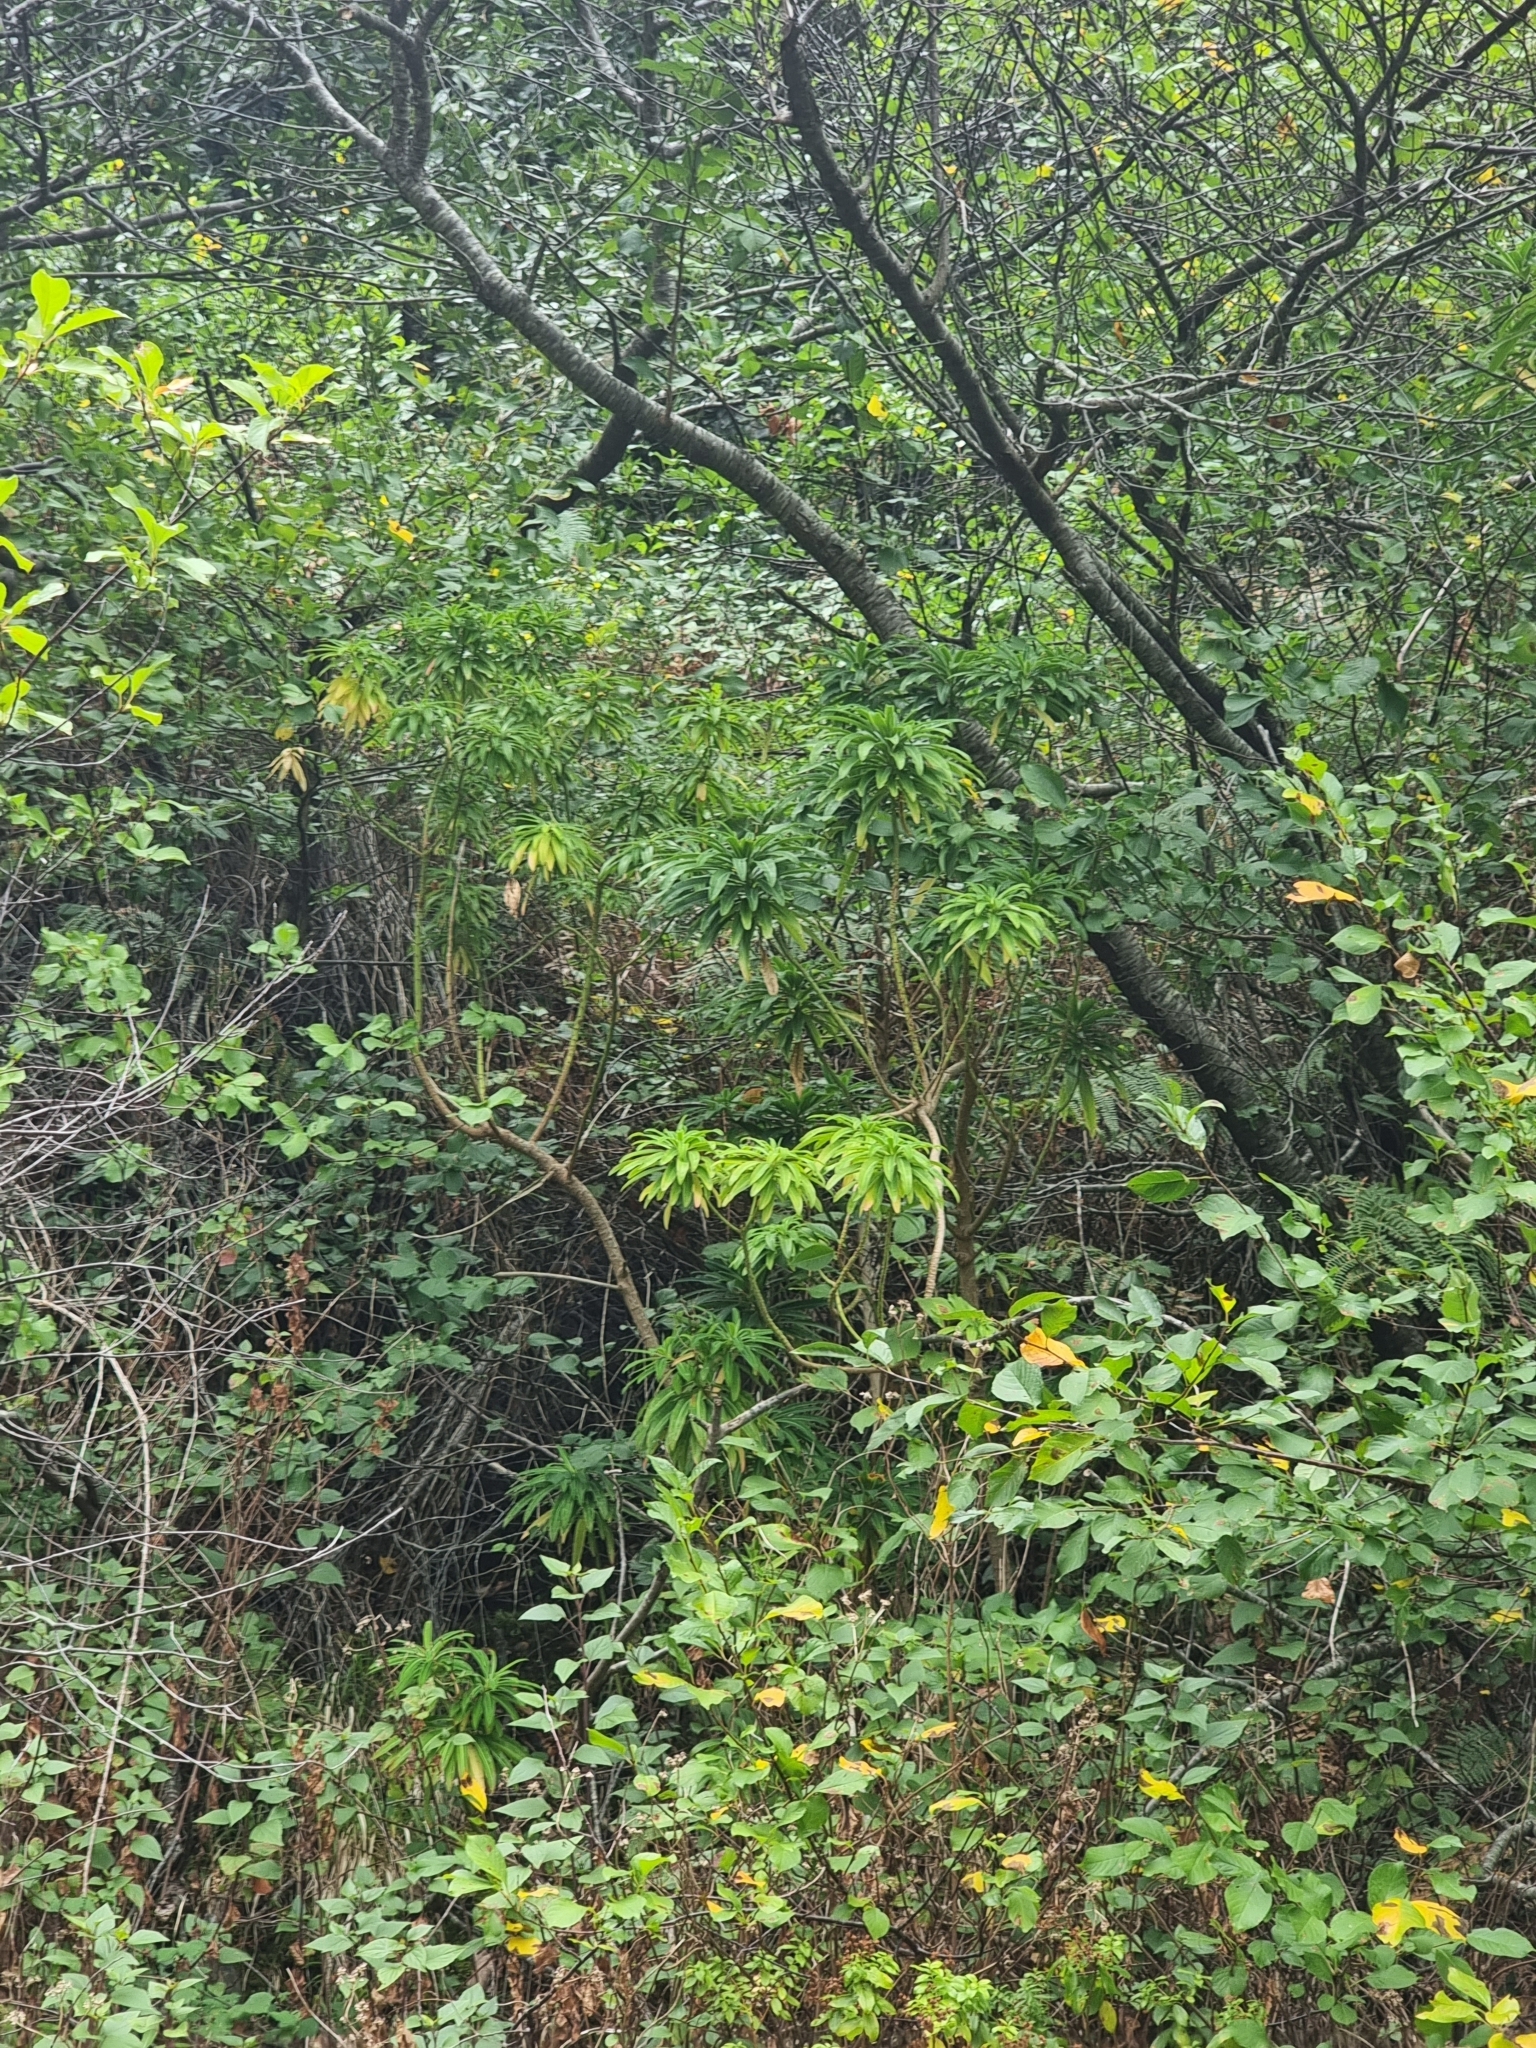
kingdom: Plantae
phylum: Tracheophyta
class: Magnoliopsida
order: Malpighiales
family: Euphorbiaceae
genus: Euphorbia
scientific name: Euphorbia mellifera
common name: Canary spurge
